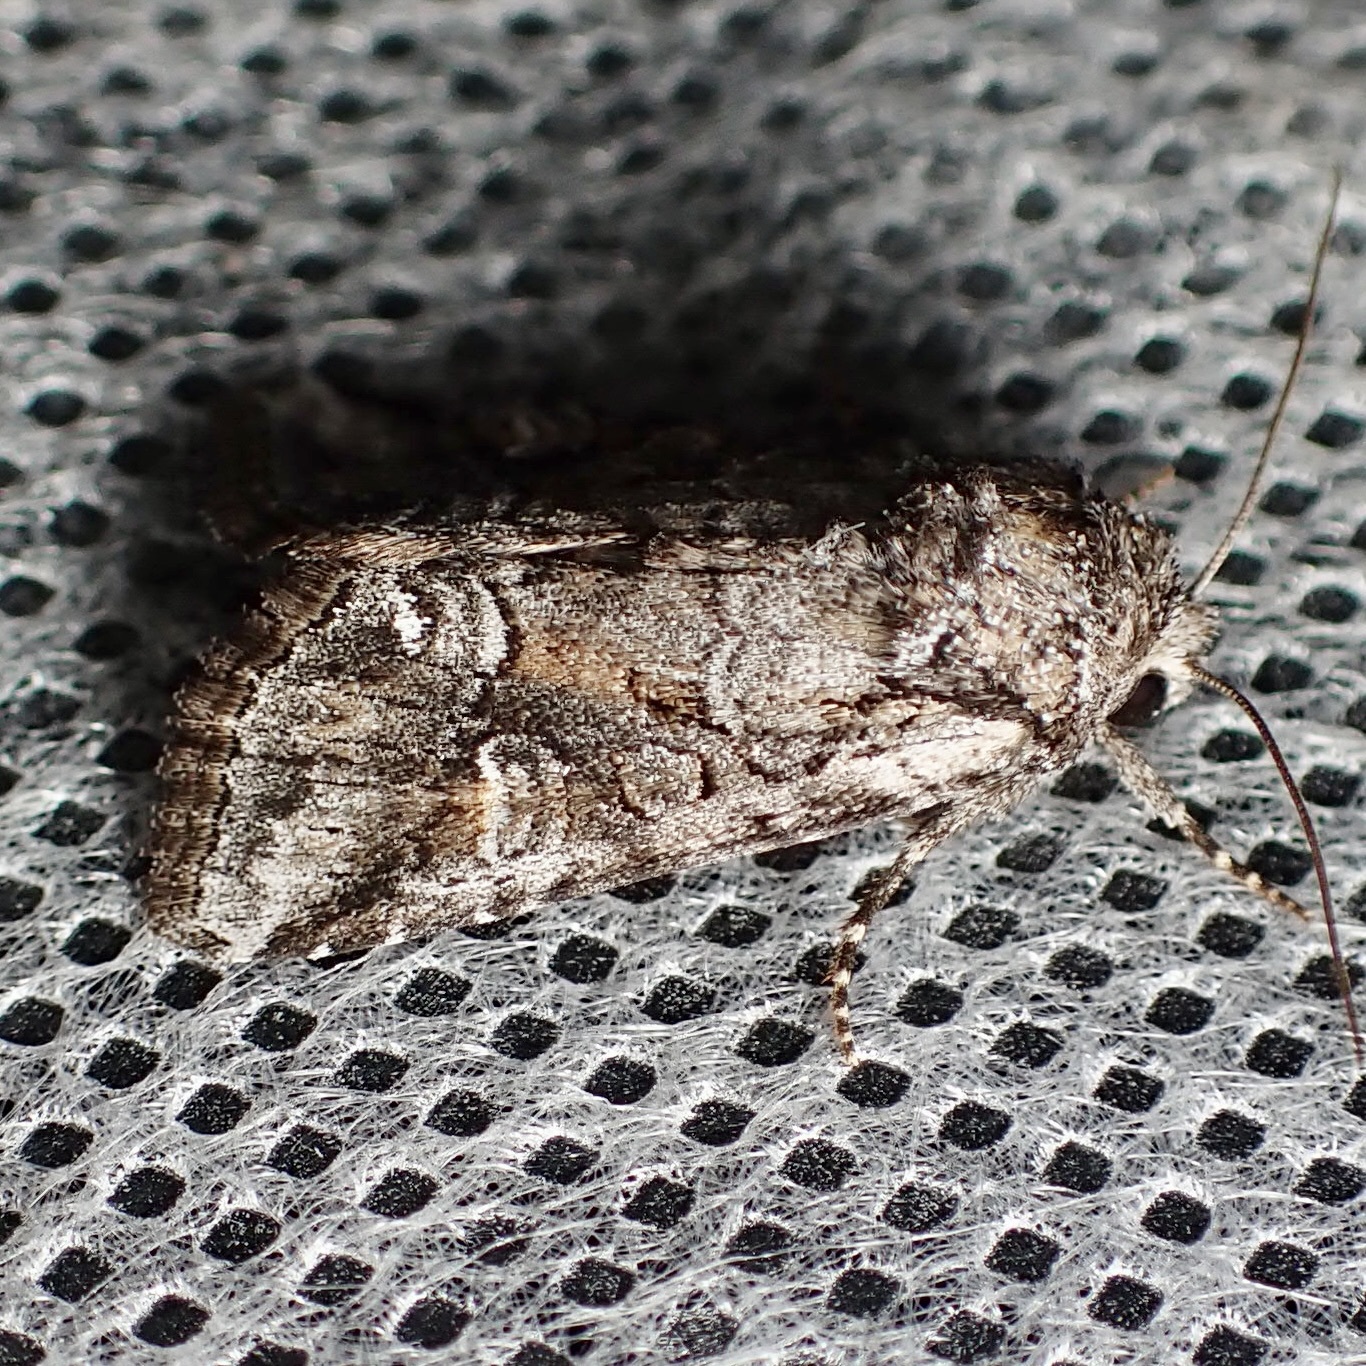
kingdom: Animalia
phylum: Arthropoda
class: Insecta
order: Lepidoptera
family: Noctuidae
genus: Lacinipolia
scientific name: Lacinipolia rodora
